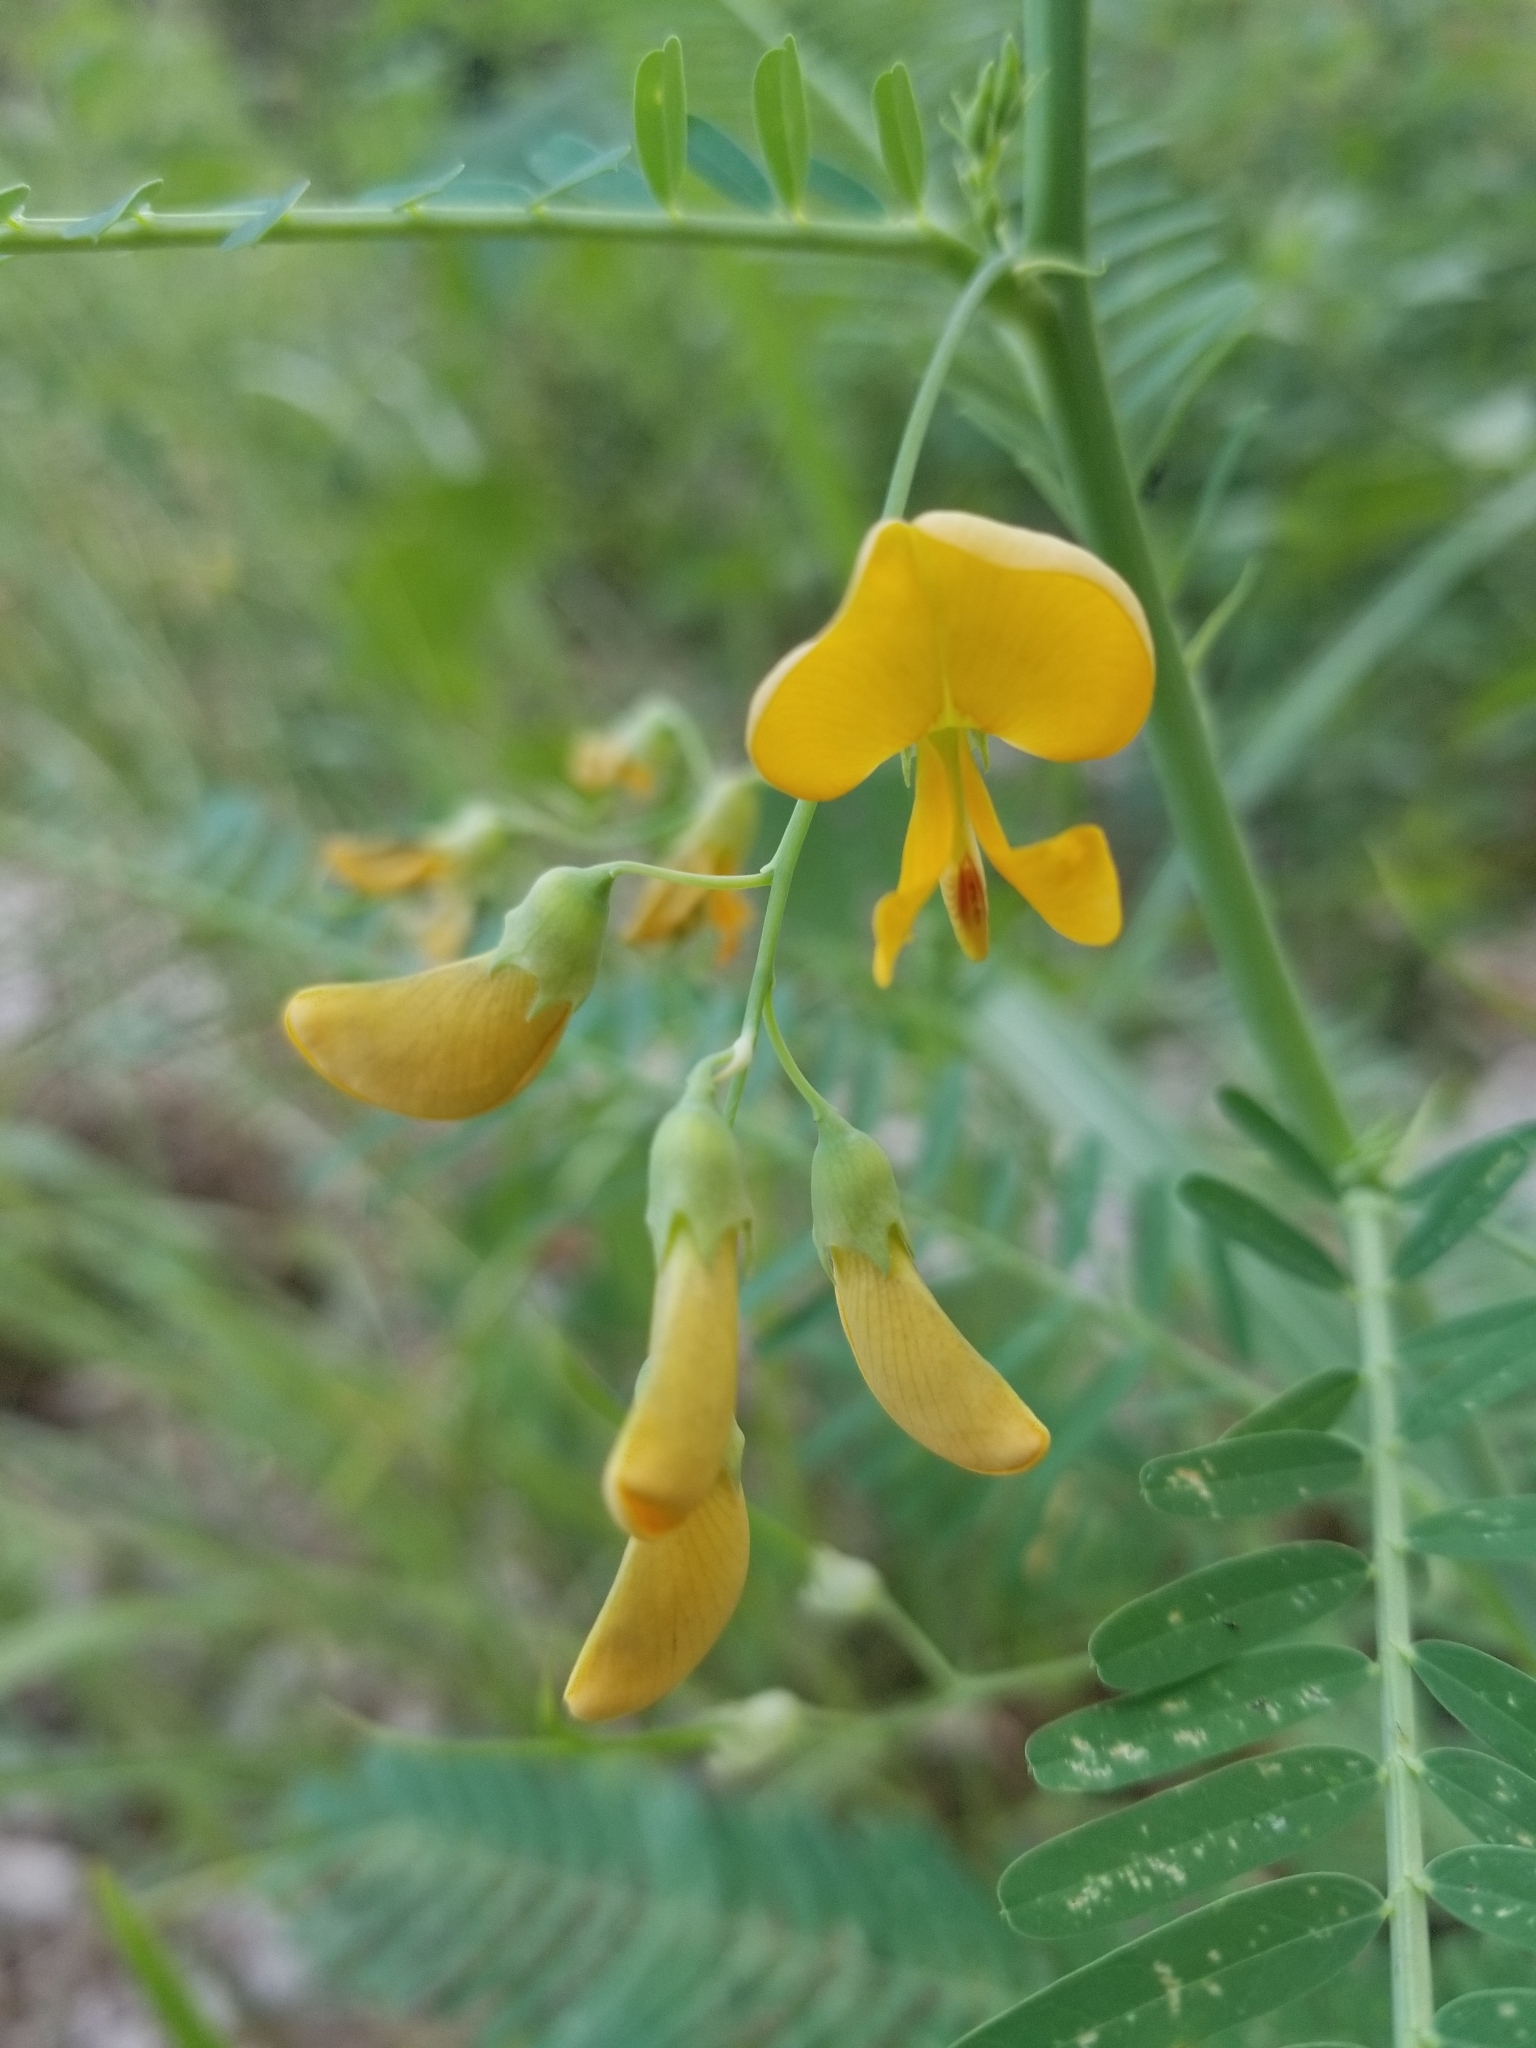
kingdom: Plantae
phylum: Tracheophyta
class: Magnoliopsida
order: Fabales
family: Fabaceae
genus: Sesbania
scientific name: Sesbania herbacea
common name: Bigpod sesbania
